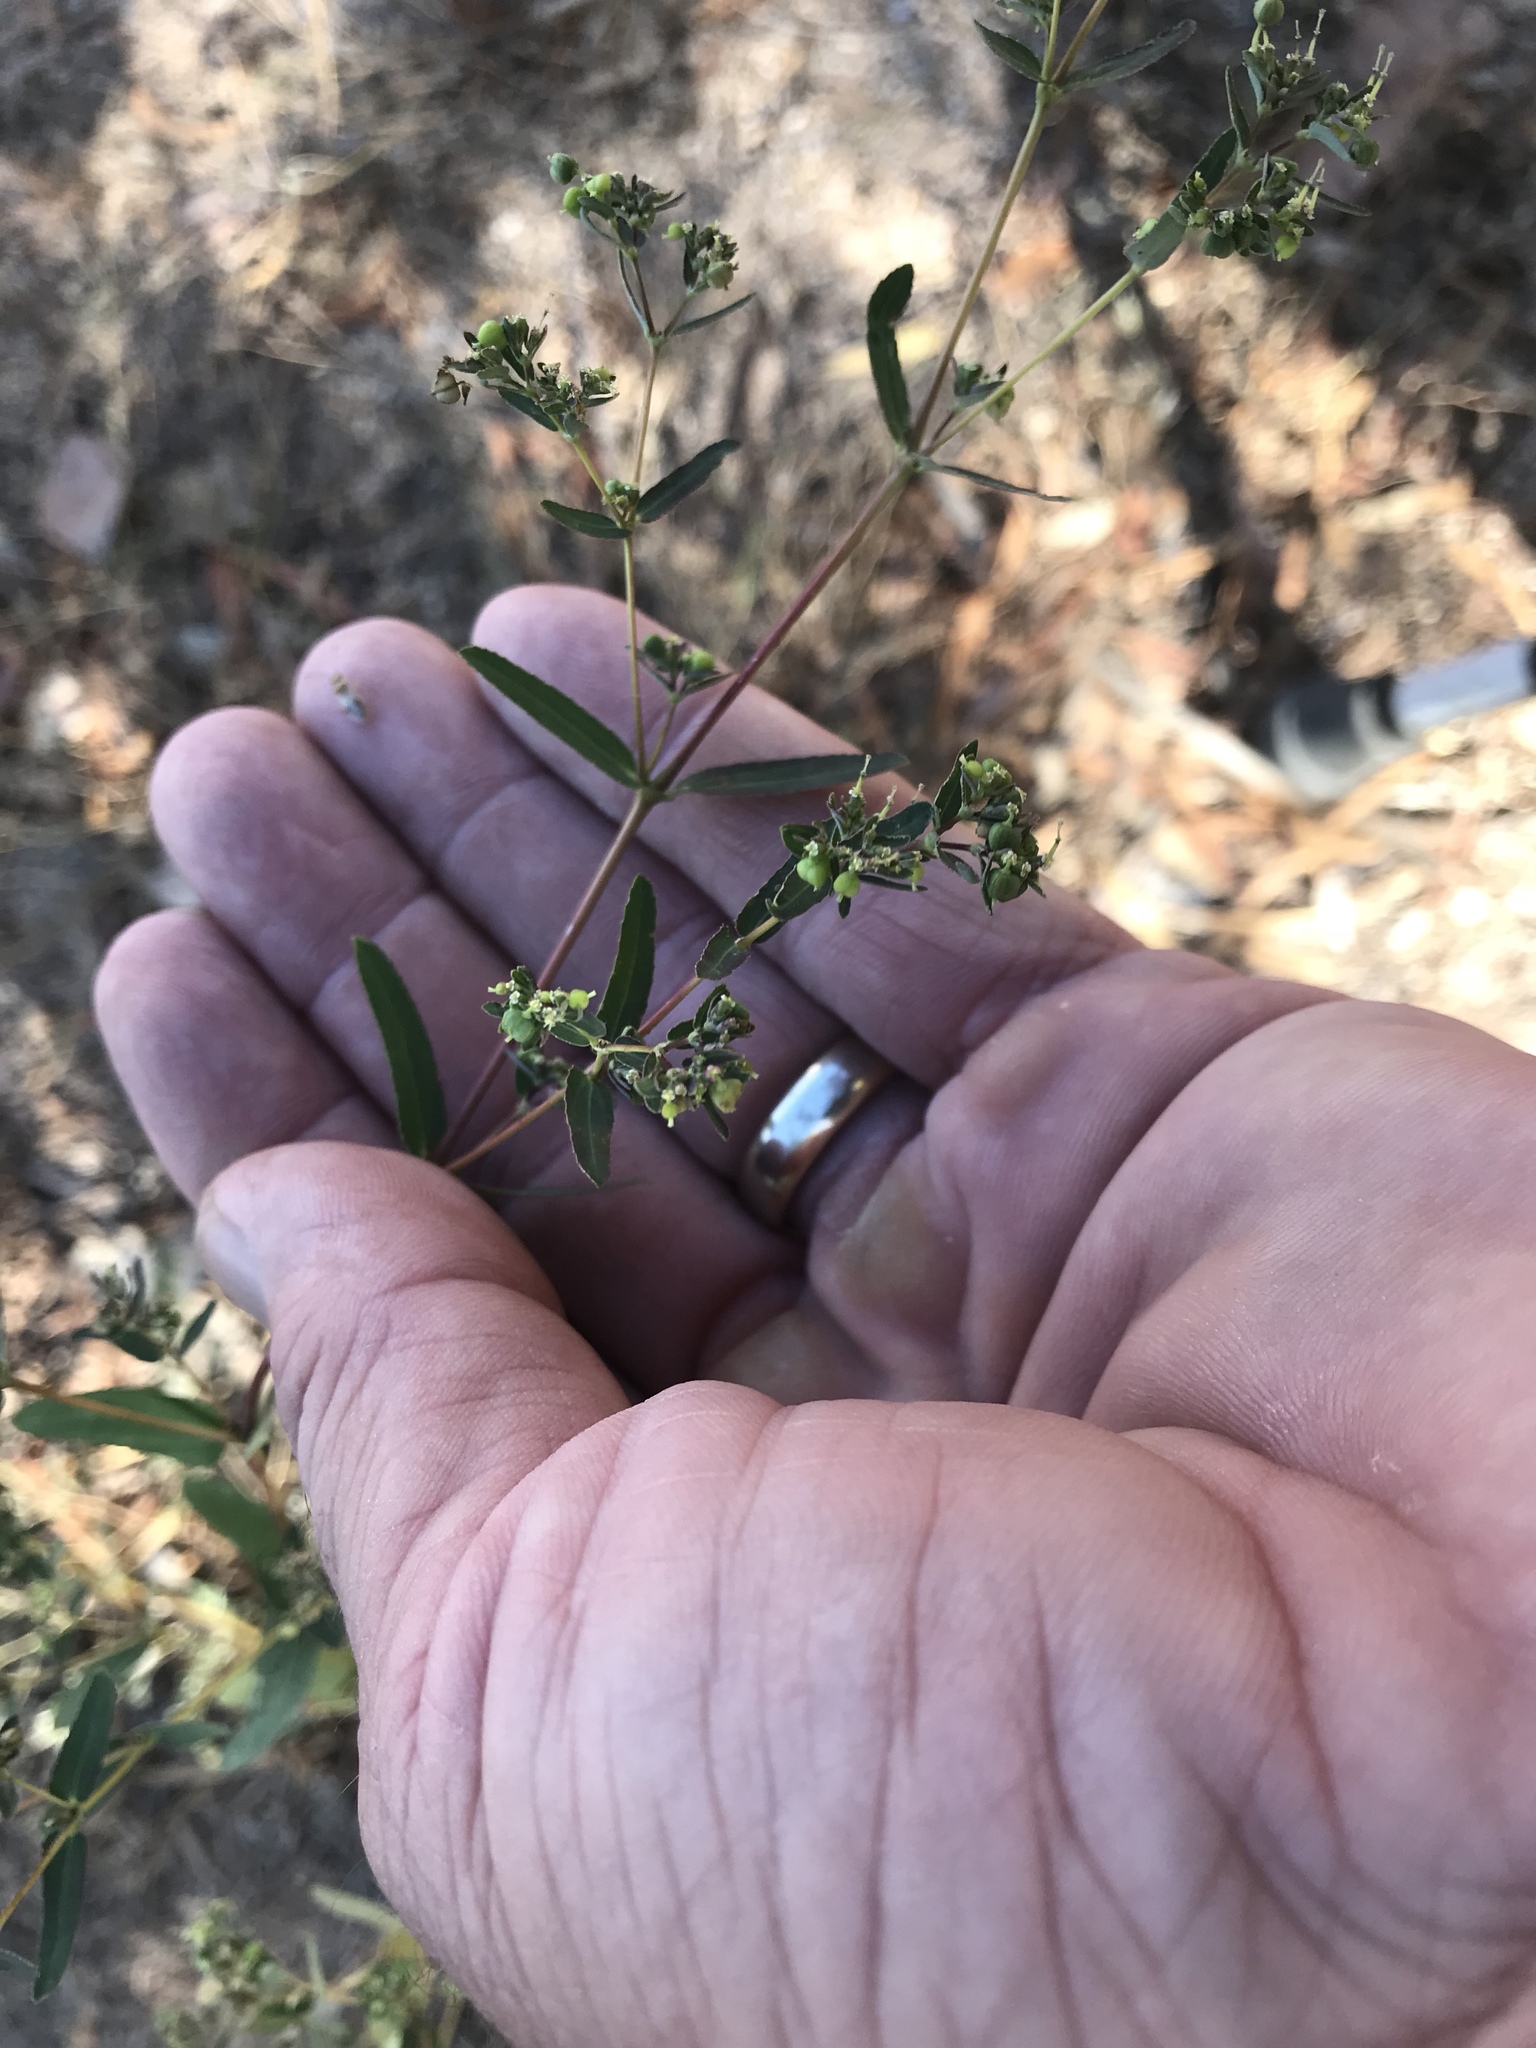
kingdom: Plantae
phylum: Tracheophyta
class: Magnoliopsida
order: Malpighiales
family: Euphorbiaceae
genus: Euphorbia
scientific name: Euphorbia hyssopifolia
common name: Hyssopleaf sandmat
